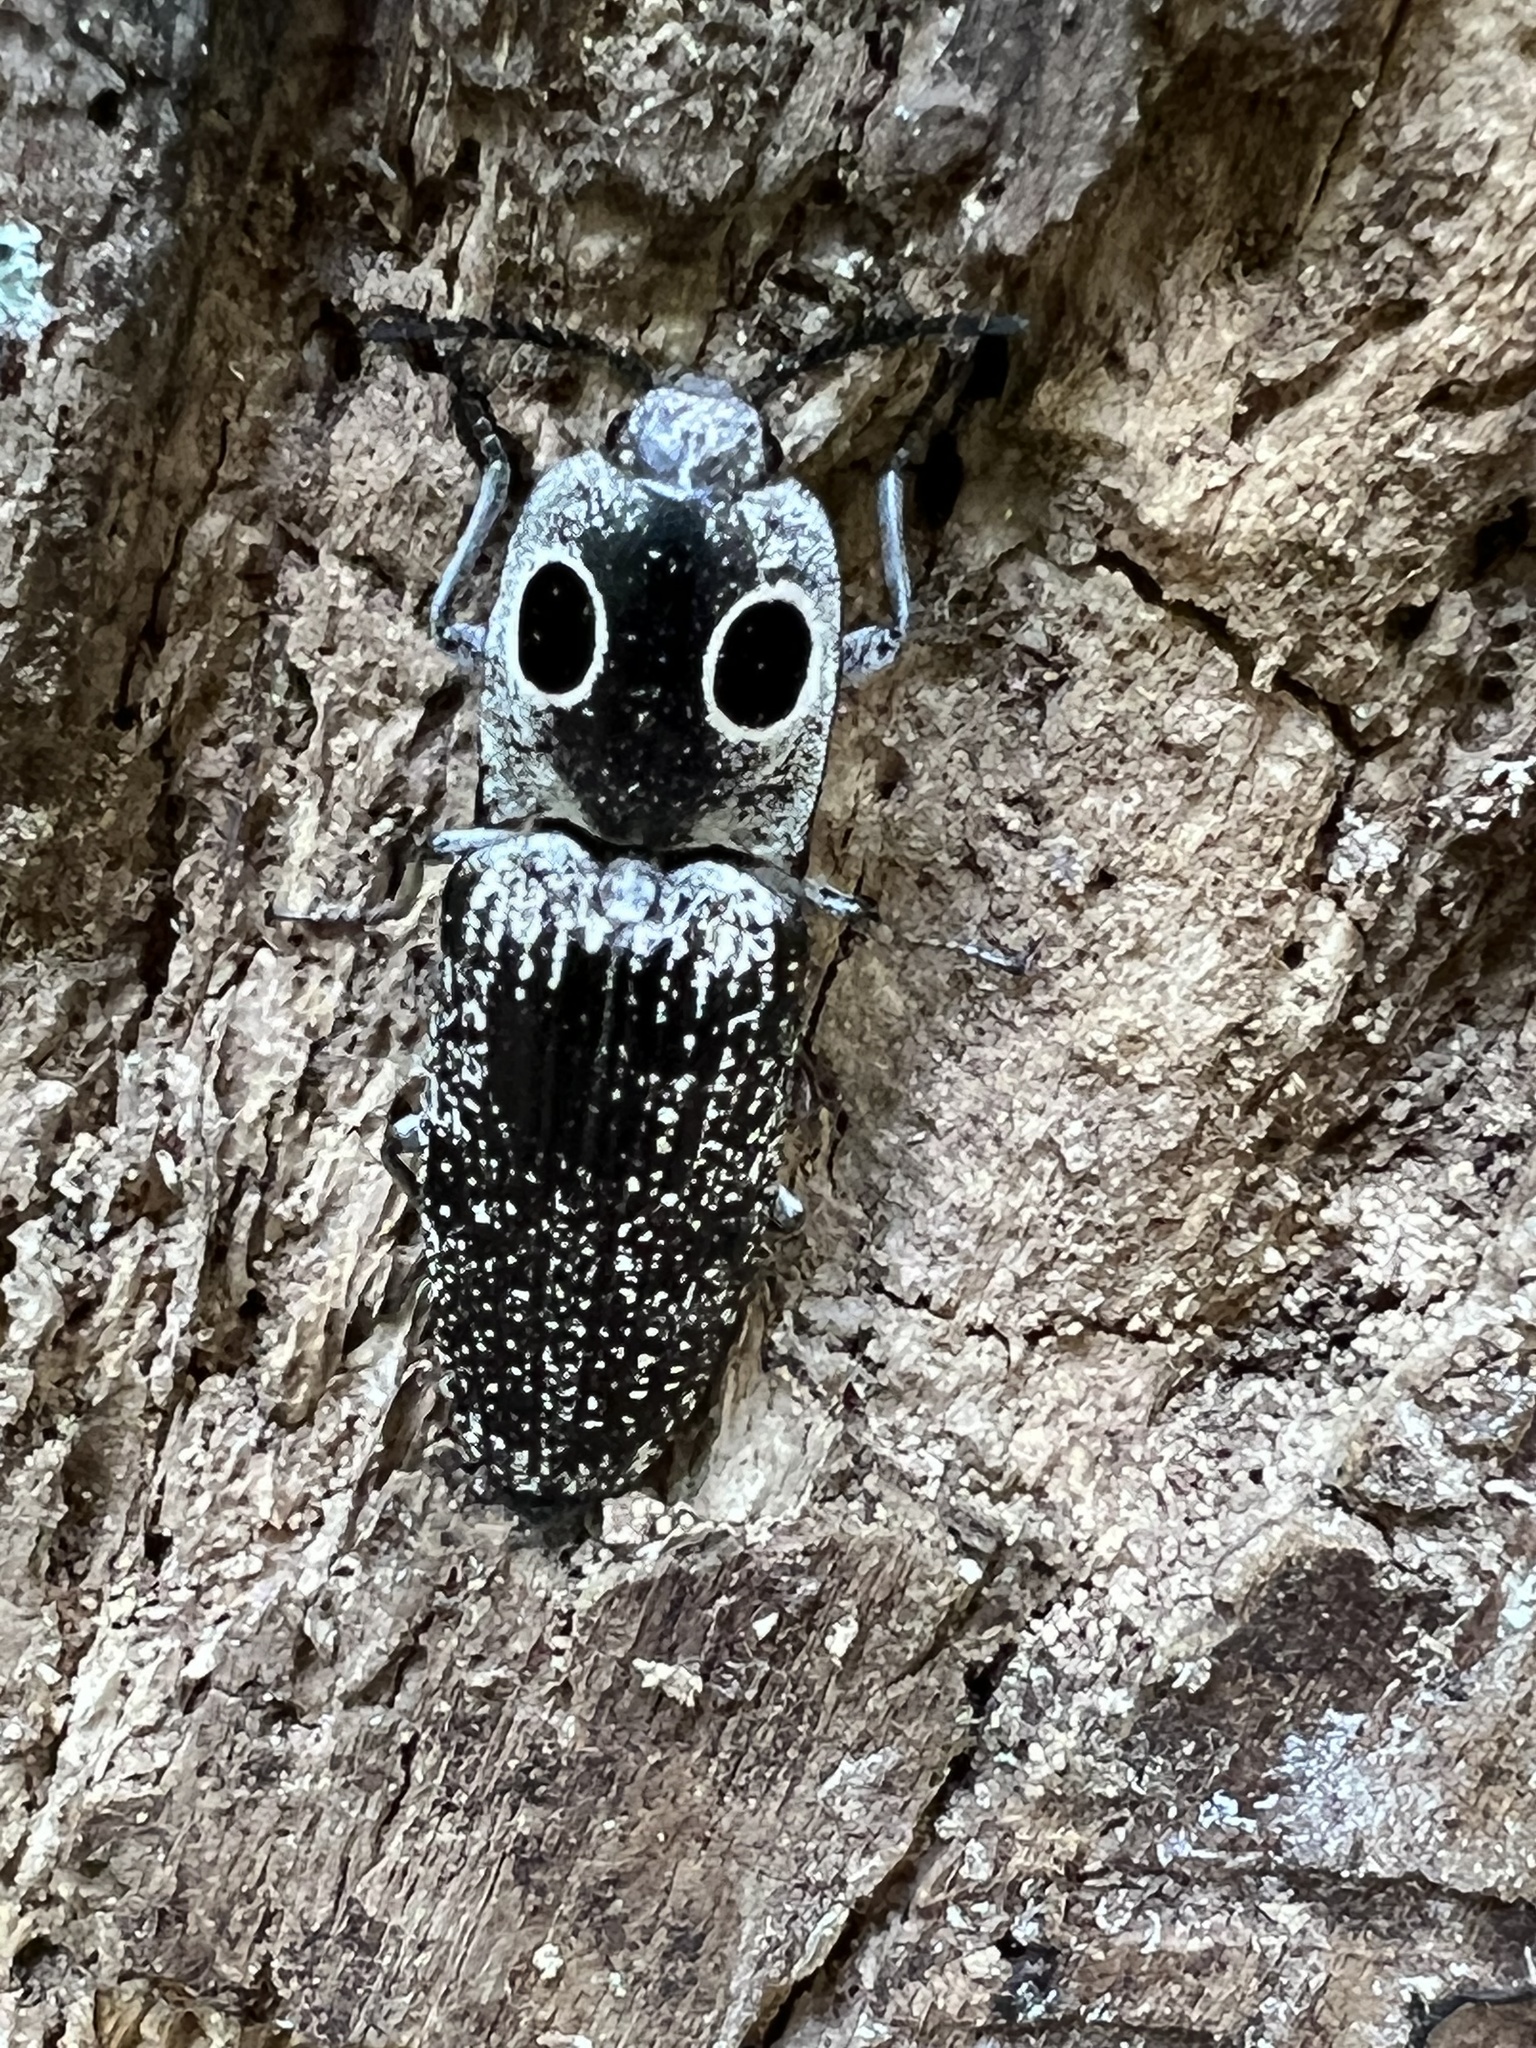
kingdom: Animalia
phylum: Arthropoda
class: Insecta
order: Coleoptera
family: Elateridae
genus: Alaus
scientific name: Alaus oculatus
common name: Eastern eyed click beetle
